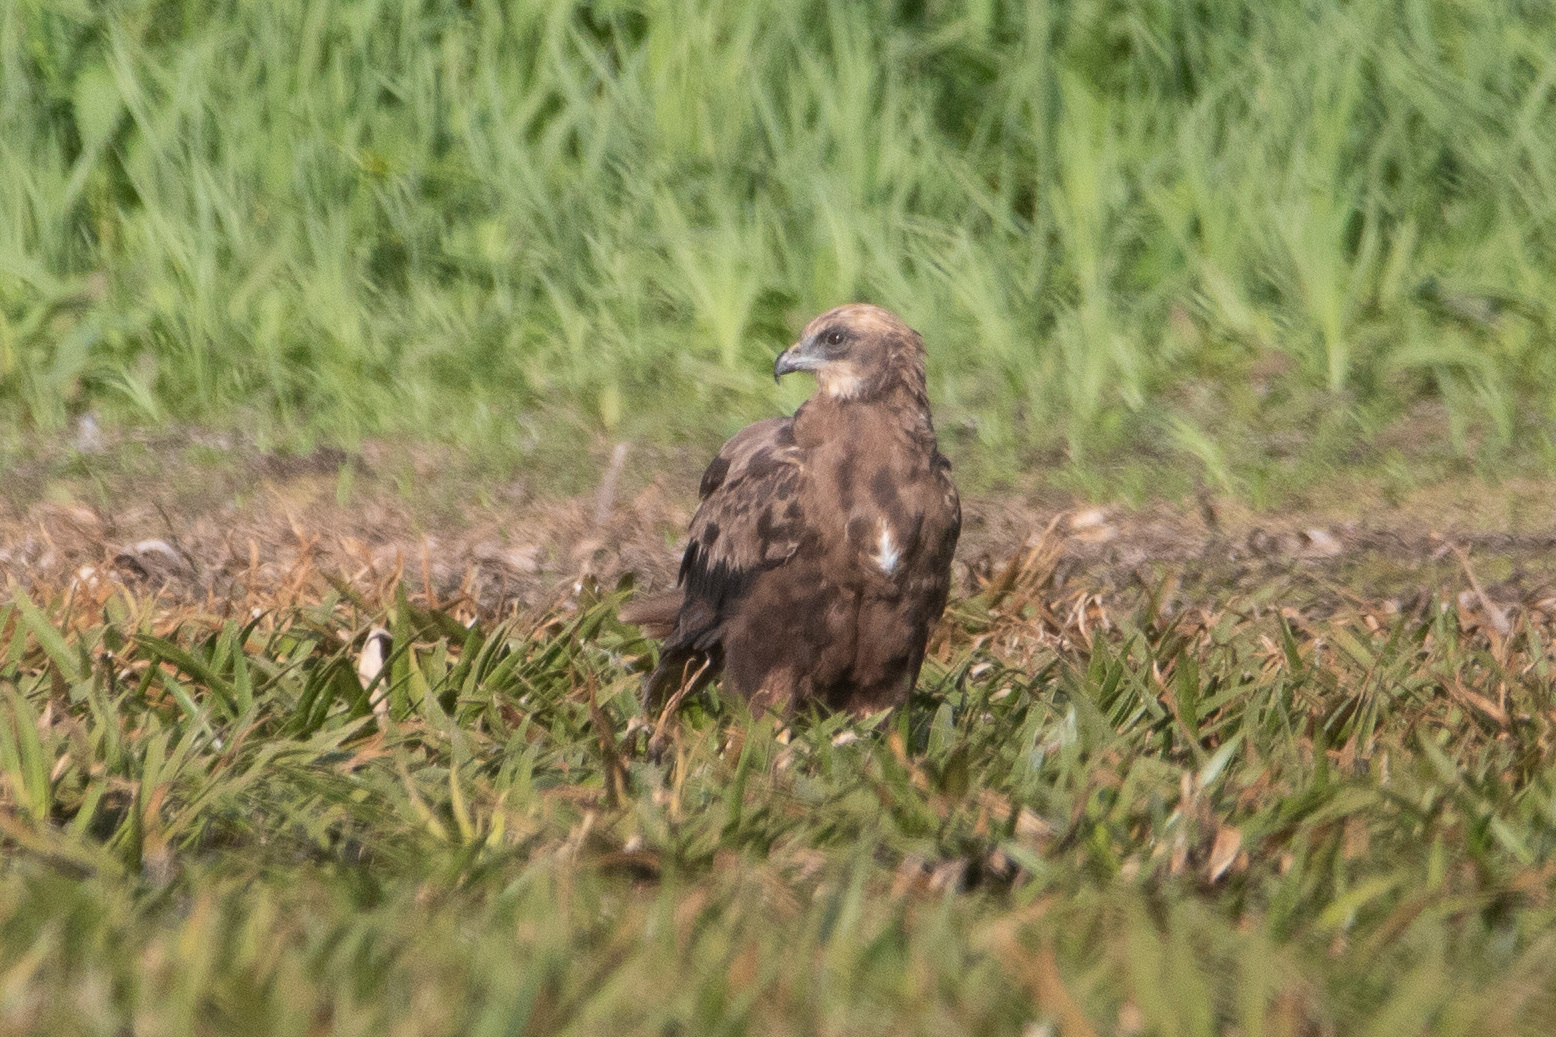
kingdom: Animalia
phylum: Chordata
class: Aves
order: Accipitriformes
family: Accipitridae
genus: Circus
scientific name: Circus aeruginosus
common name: Western marsh harrier
